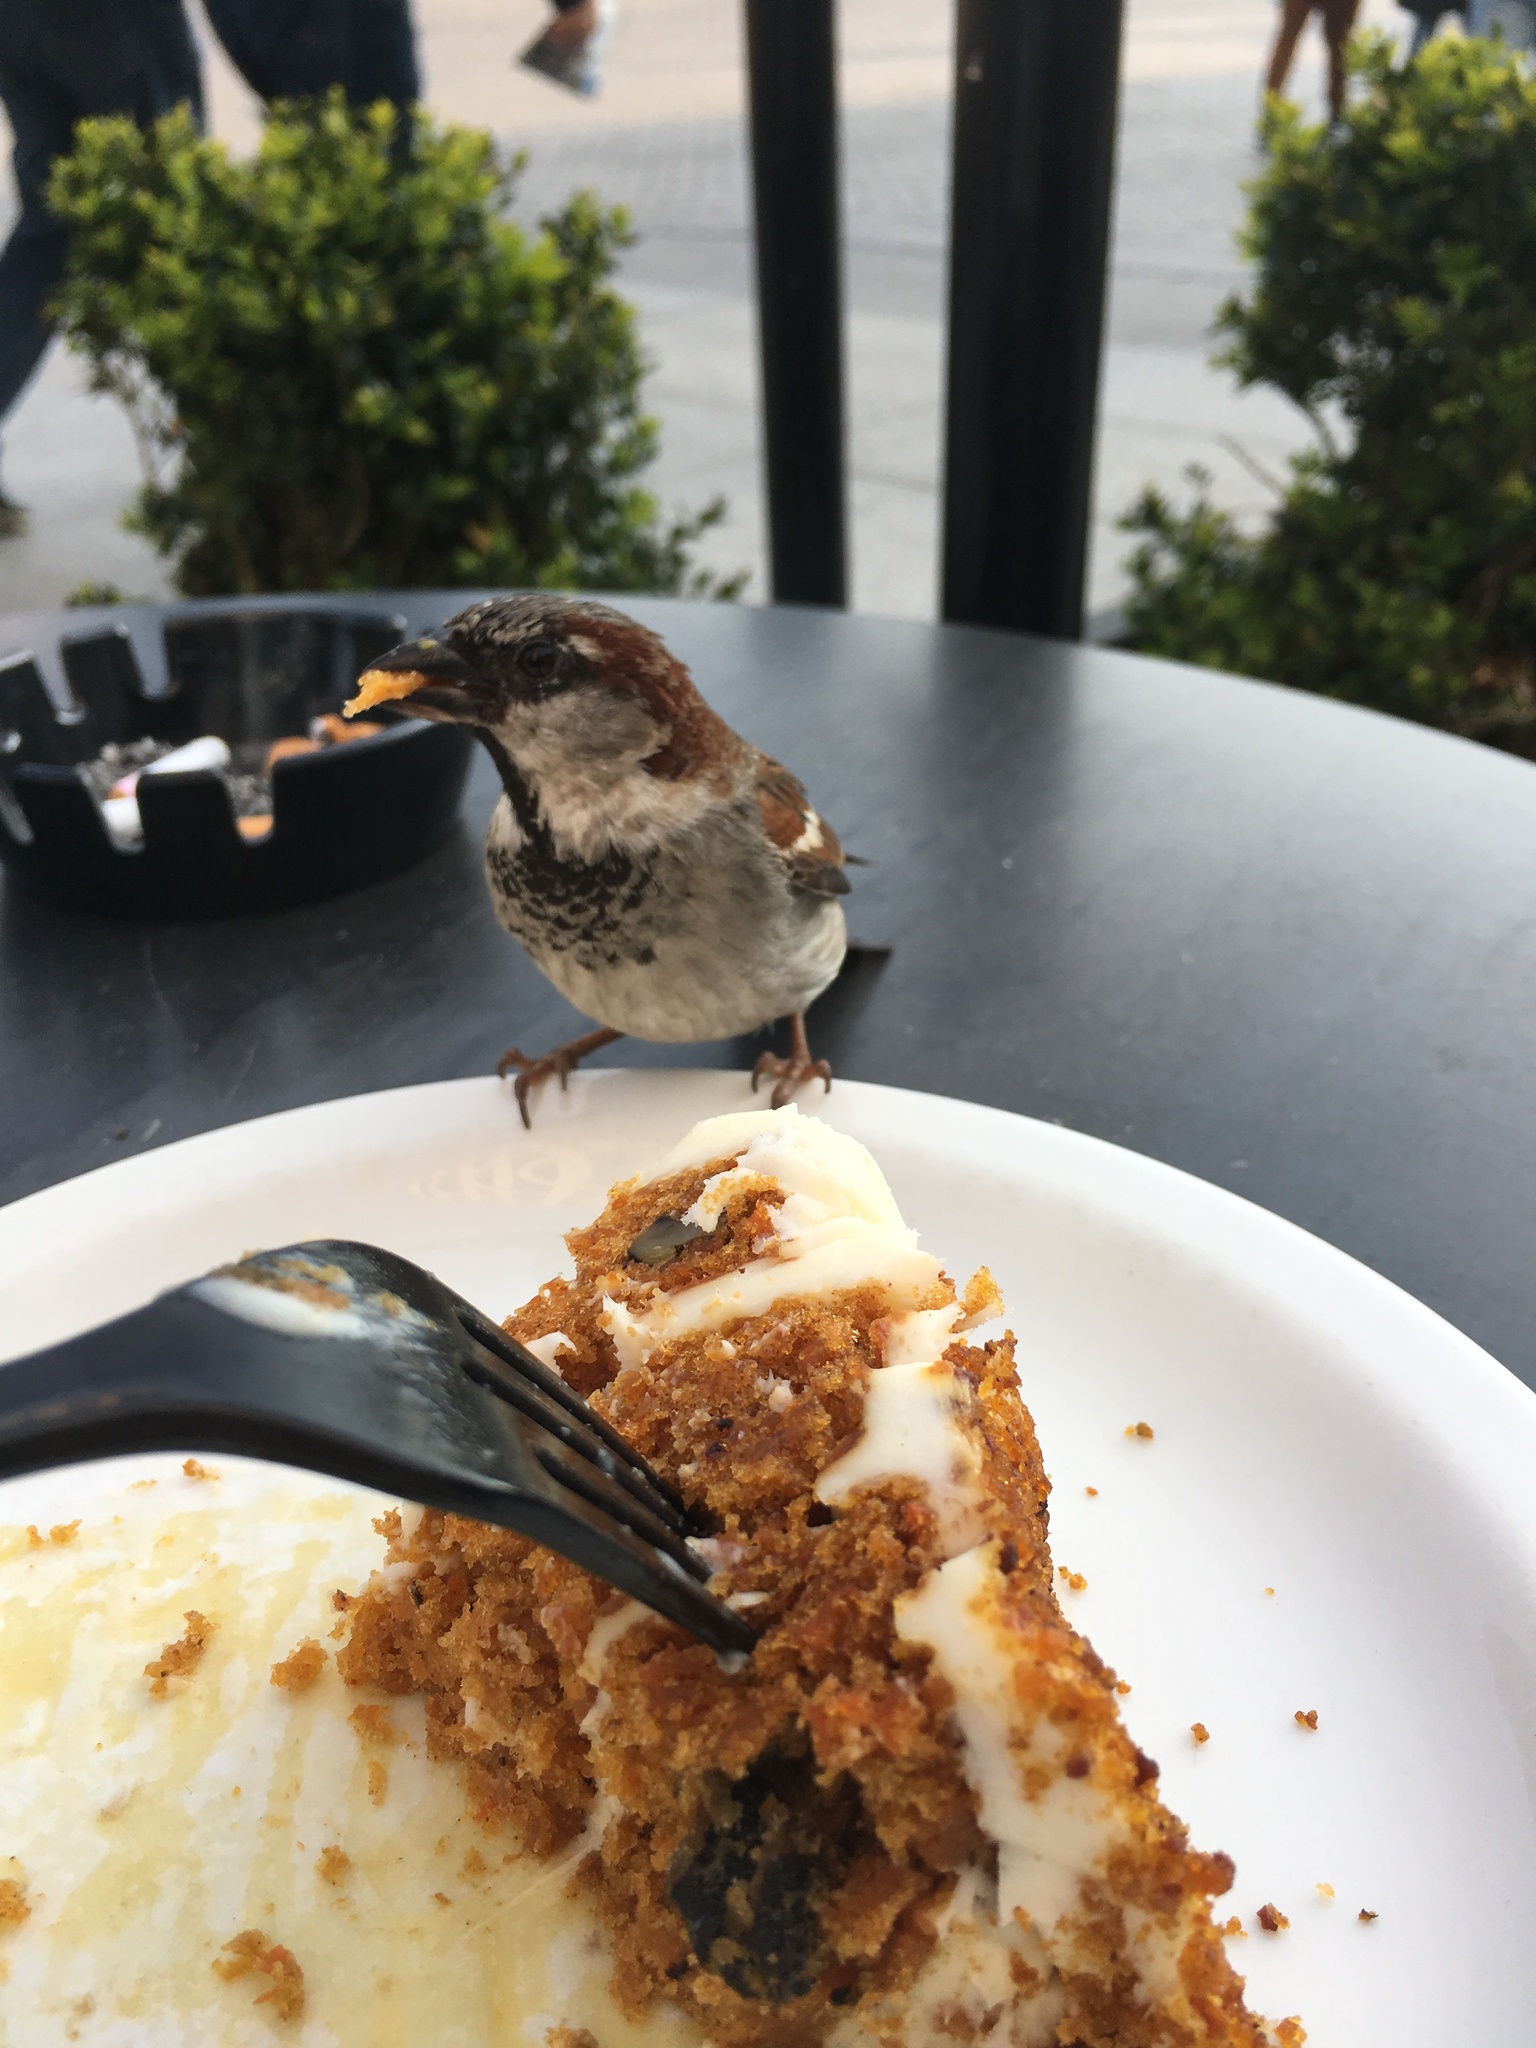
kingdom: Animalia
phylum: Chordata
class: Aves
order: Passeriformes
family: Passeridae
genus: Passer
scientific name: Passer domesticus
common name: House sparrow
